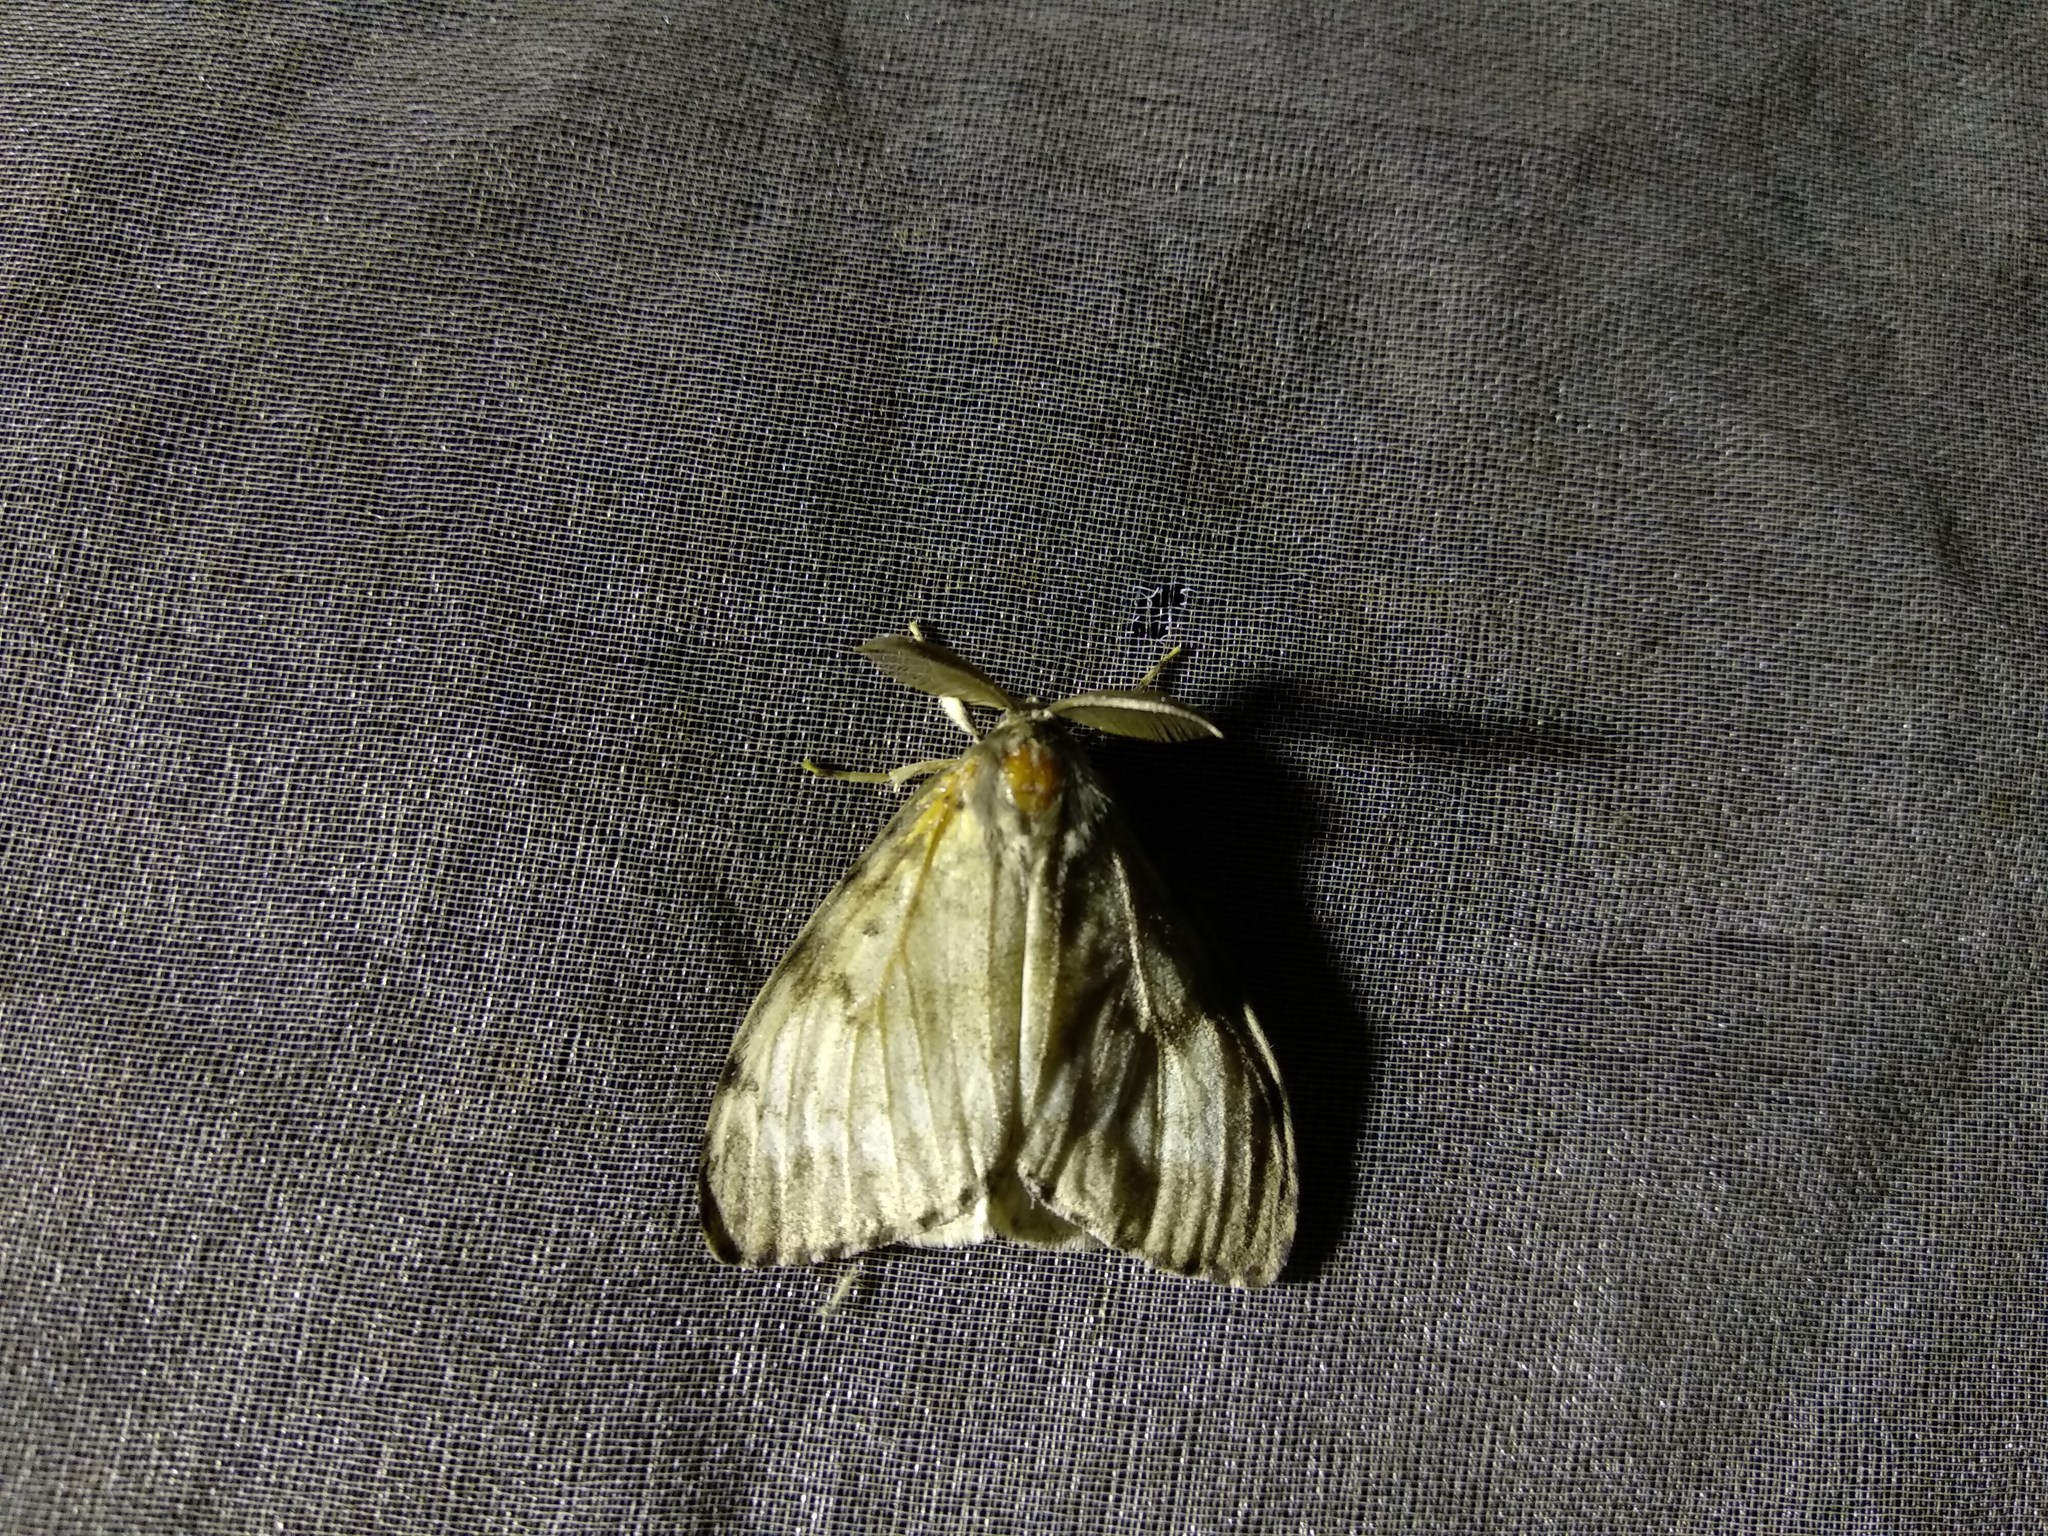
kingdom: Animalia
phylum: Arthropoda
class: Insecta
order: Lepidoptera
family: Erebidae
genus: Lymantria
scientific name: Lymantria dispar
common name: Gypsy moth
